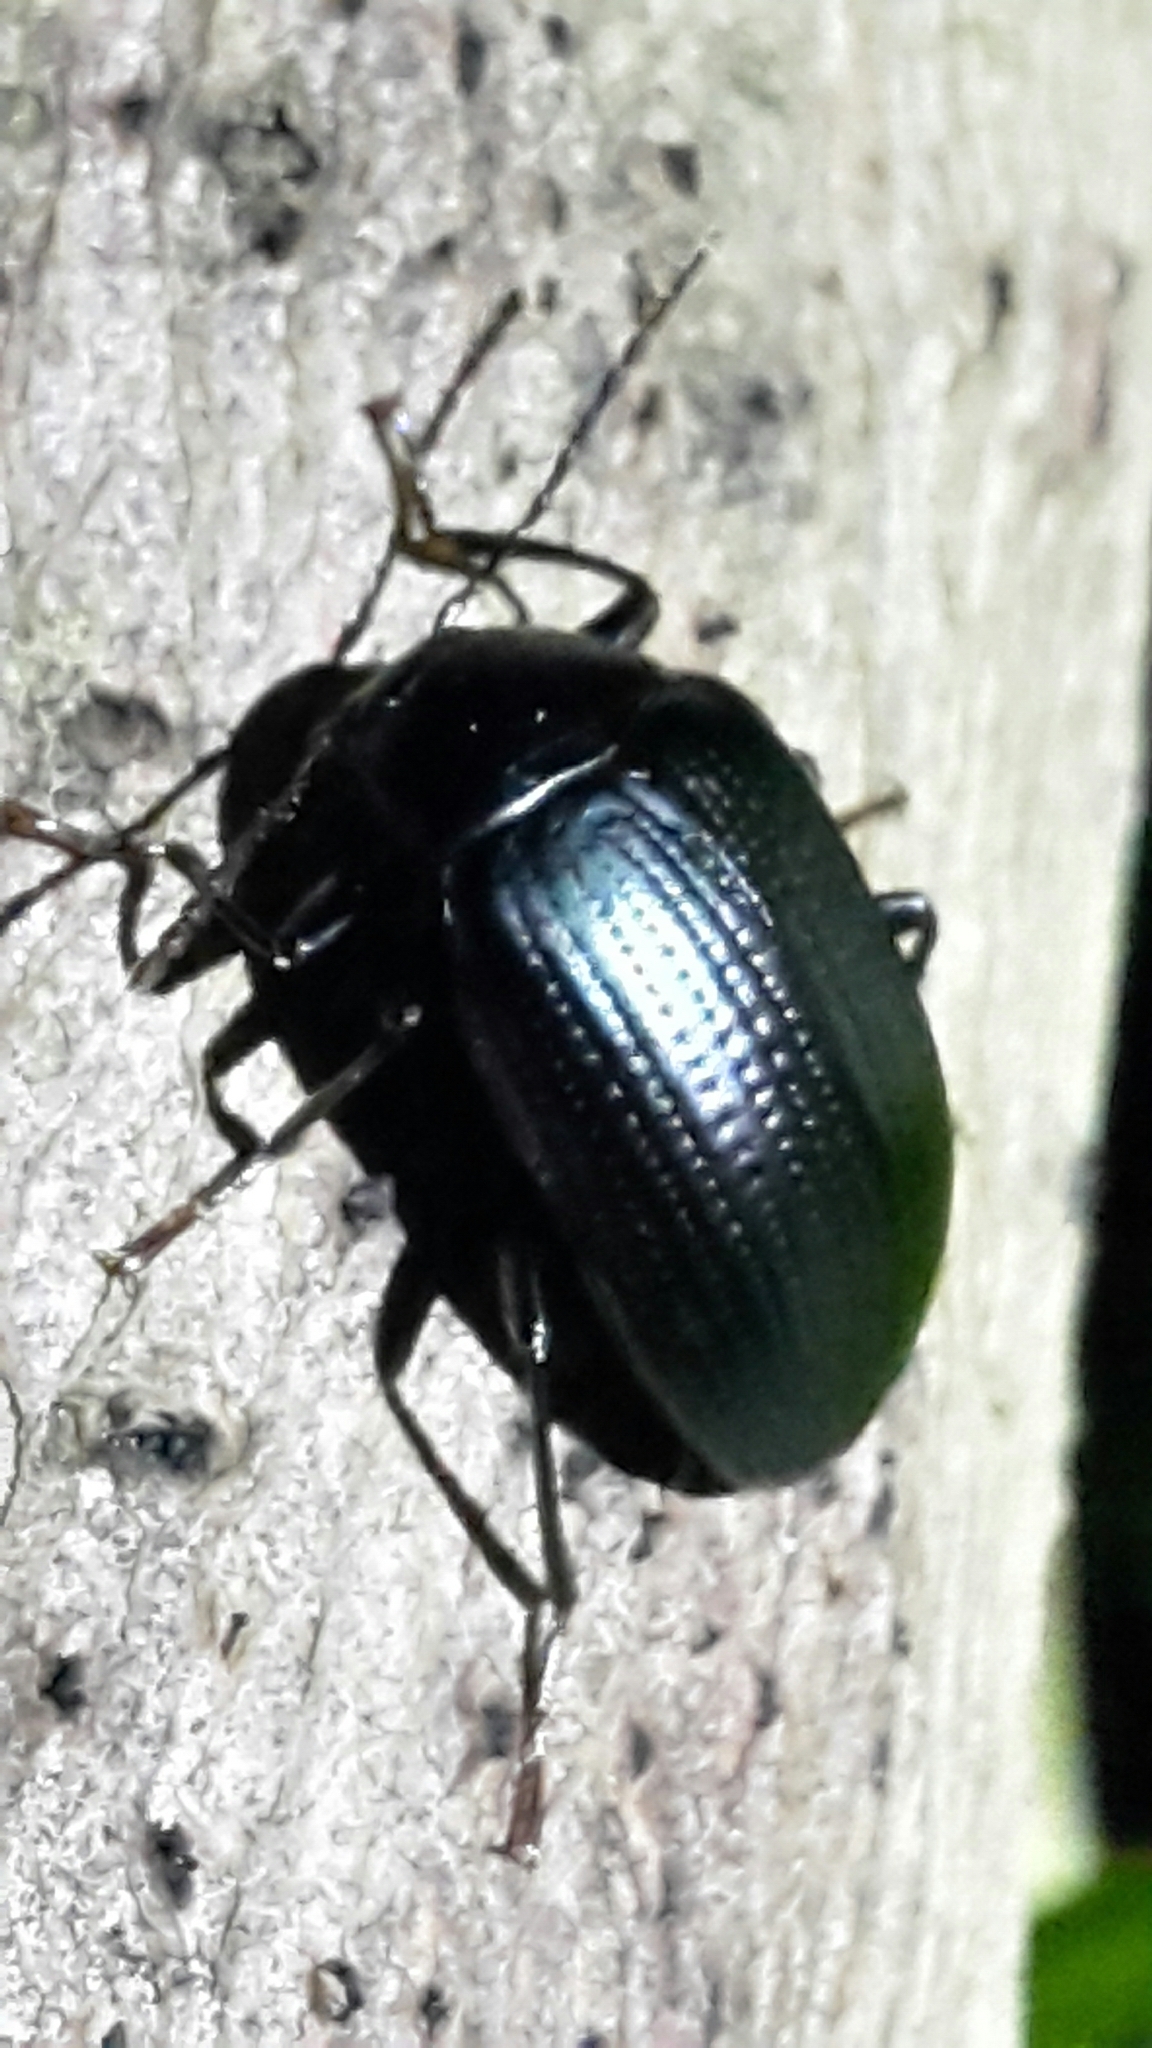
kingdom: Animalia
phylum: Arthropoda
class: Insecta
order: Coleoptera
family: Tenebrionidae
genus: Amarygmus
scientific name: Amarygmus
